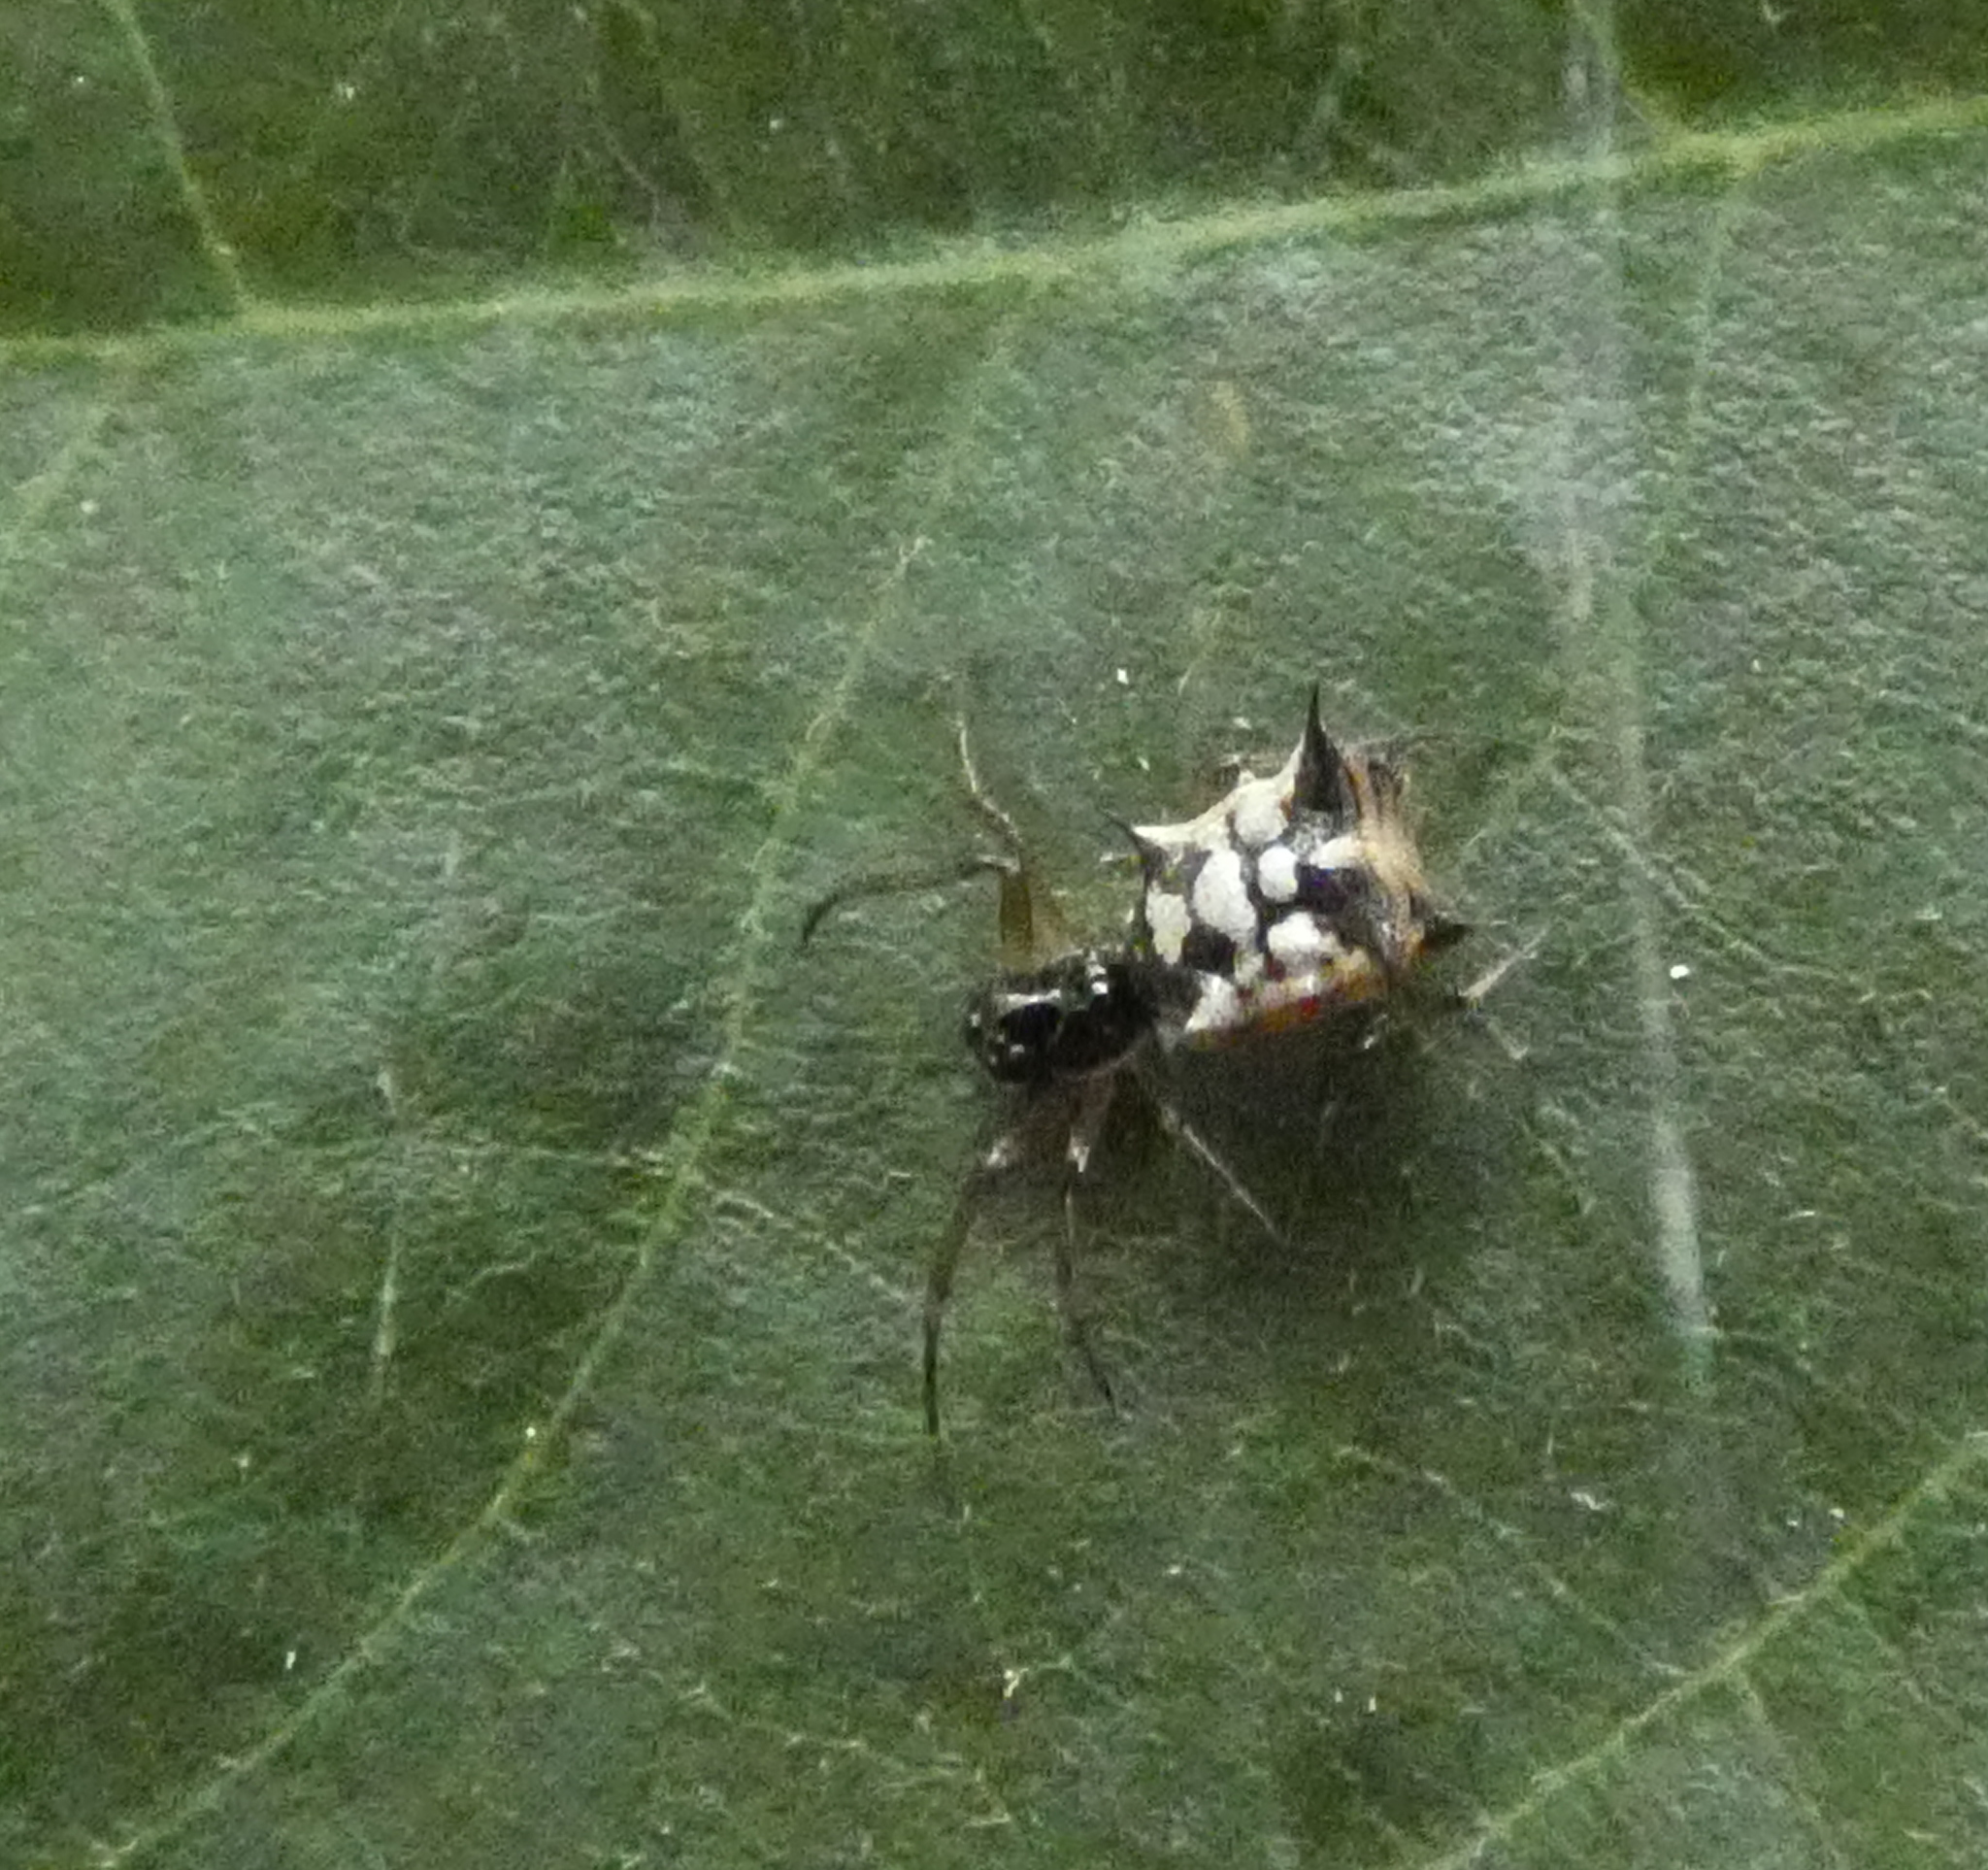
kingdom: Animalia
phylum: Arthropoda
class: Arachnida
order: Araneae
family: Araneidae
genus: Micrathena
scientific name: Micrathena picta
